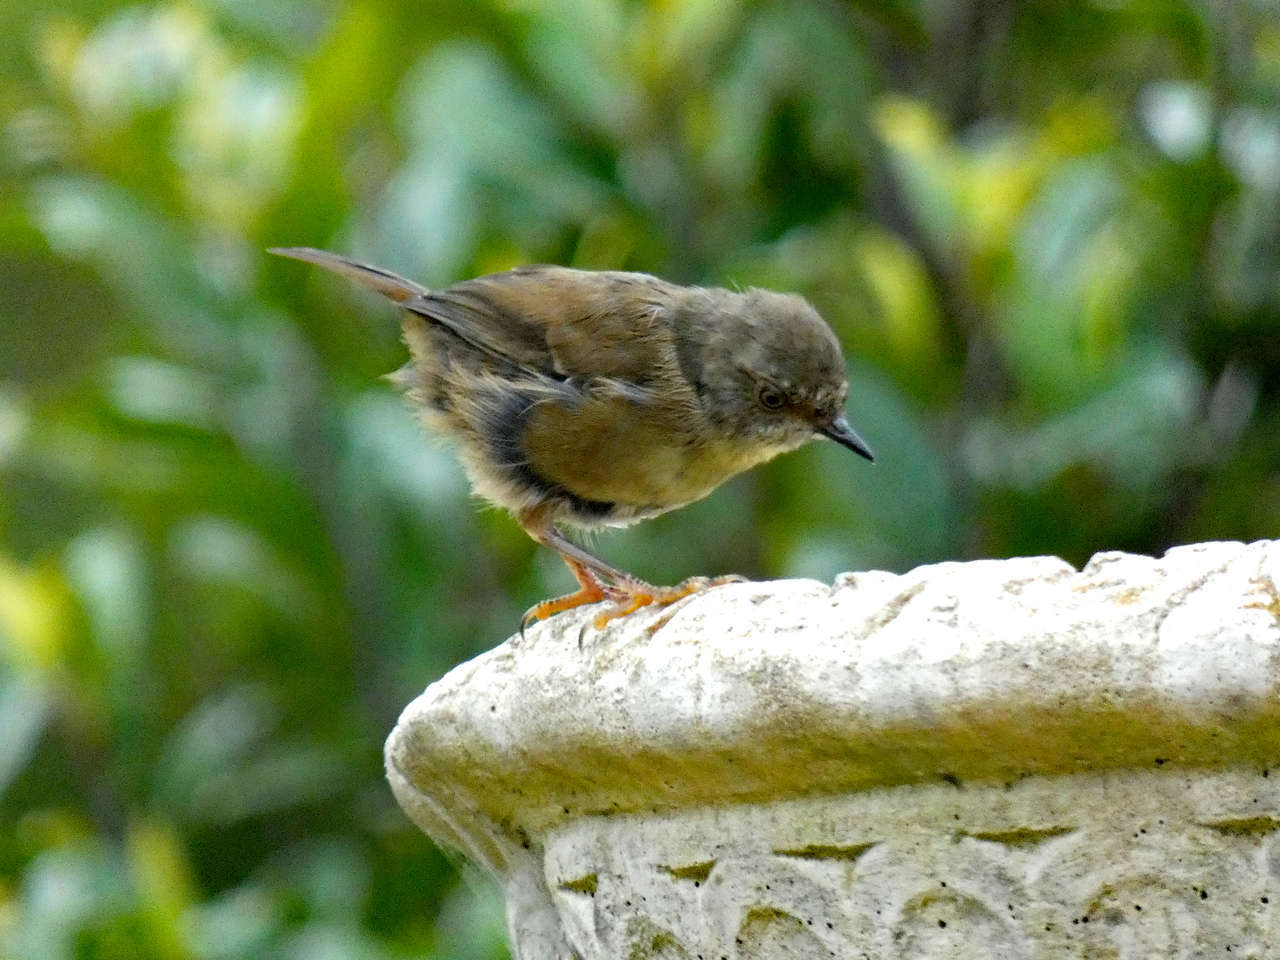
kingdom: Animalia
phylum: Chordata
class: Aves
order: Passeriformes
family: Acanthizidae
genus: Sericornis
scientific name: Sericornis frontalis
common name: White-browed scrubwren
